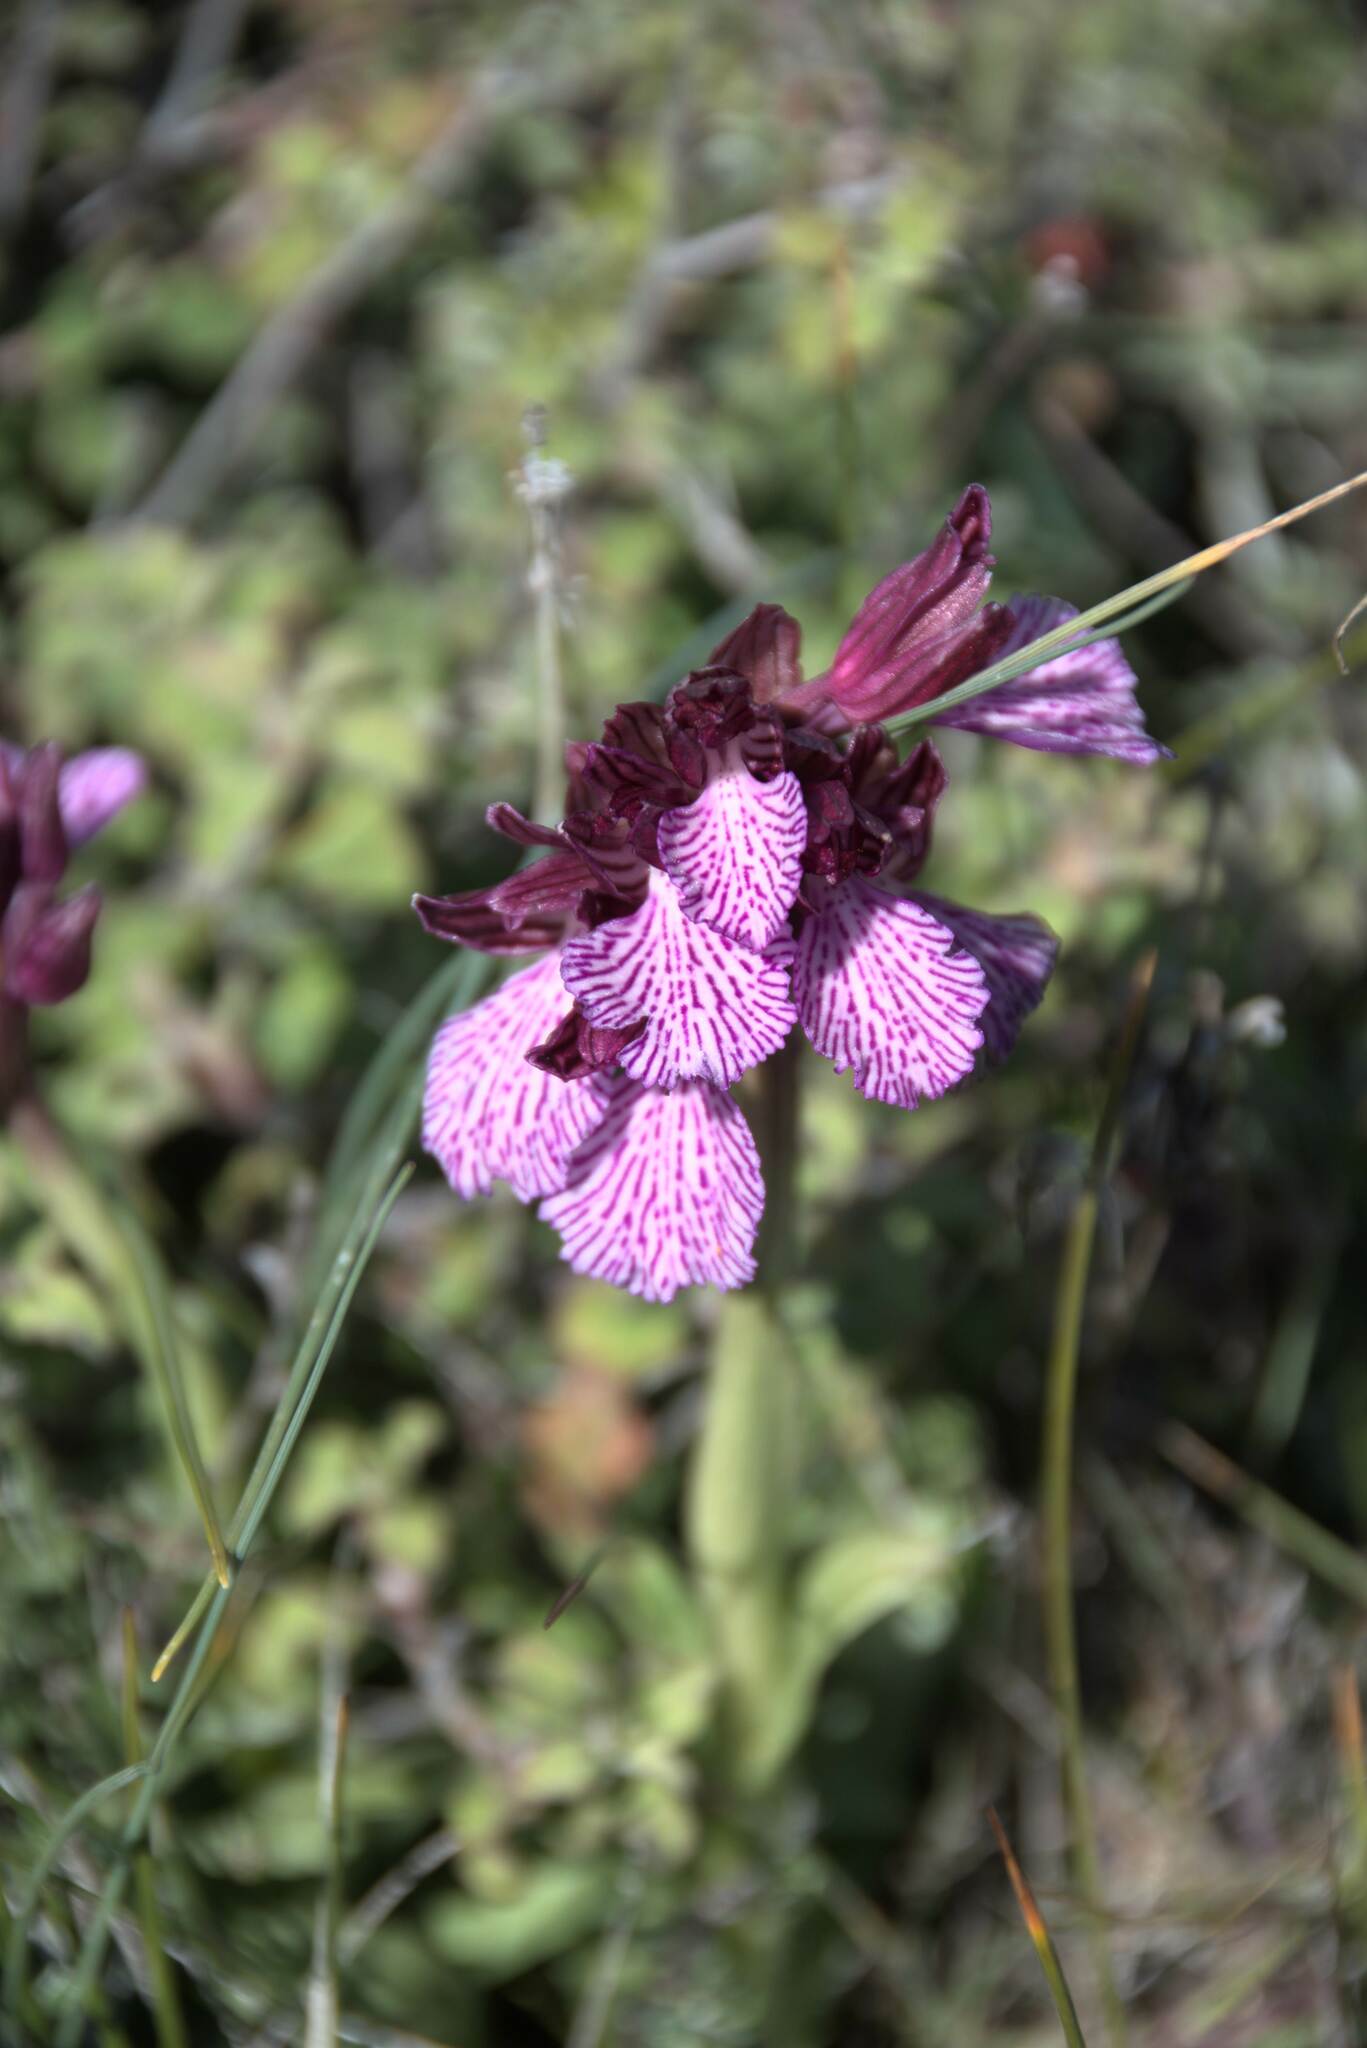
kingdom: Plantae
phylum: Tracheophyta
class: Liliopsida
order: Asparagales
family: Orchidaceae
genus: Anacamptis
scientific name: Anacamptis papilionacea
